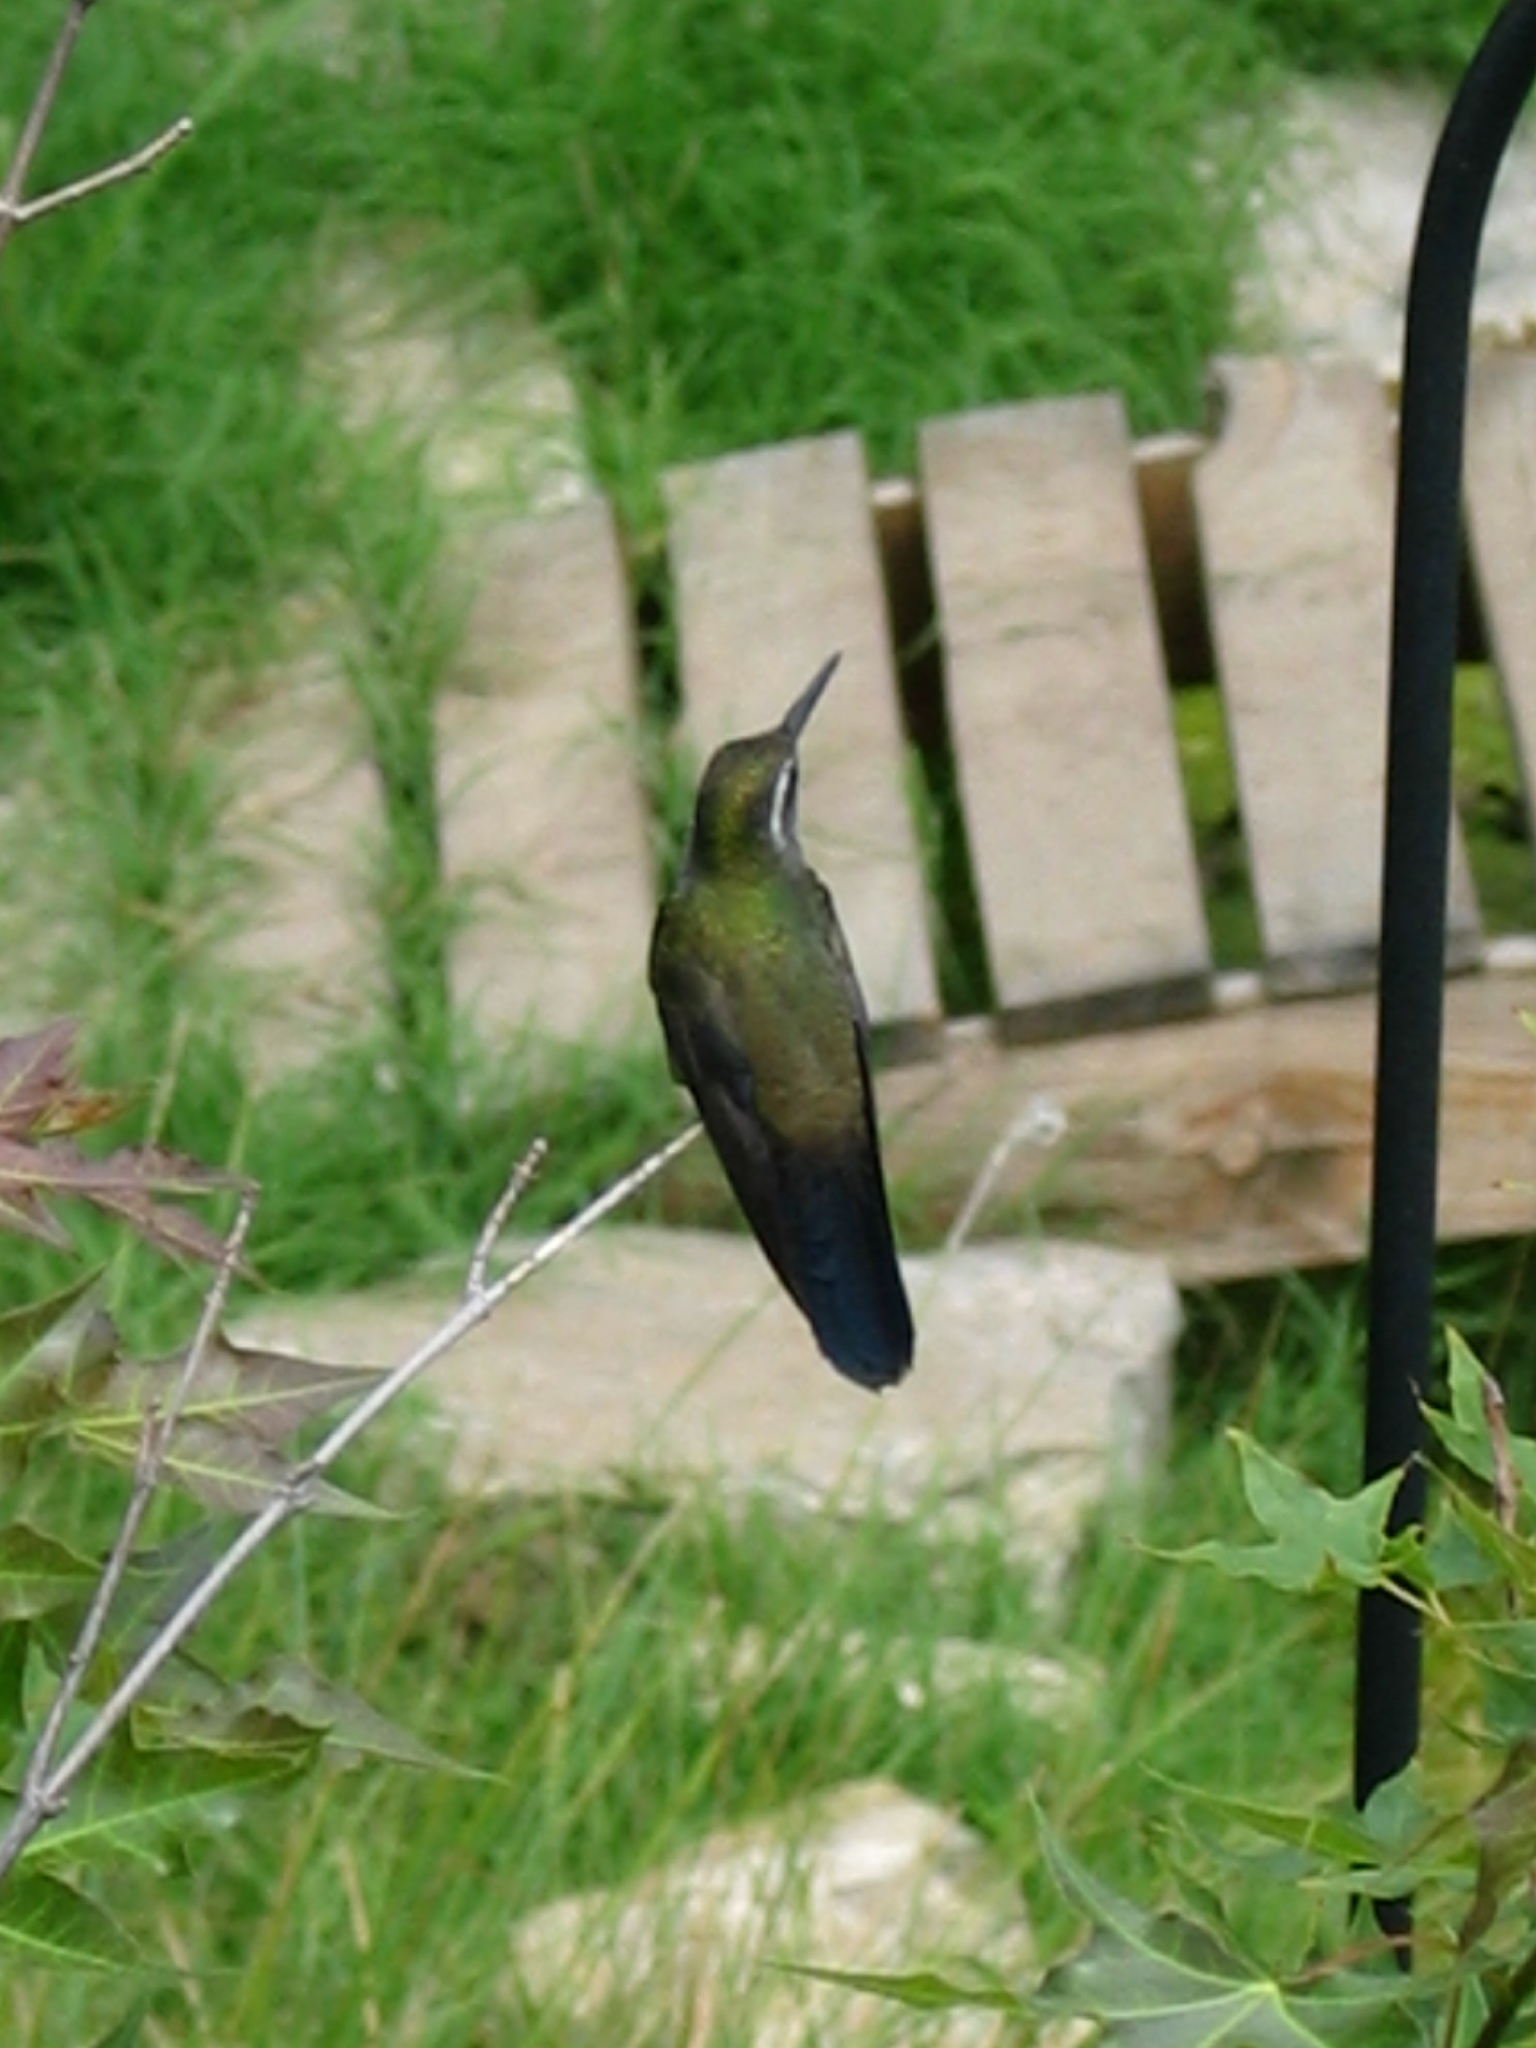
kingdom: Animalia
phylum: Chordata
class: Aves
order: Apodiformes
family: Trochilidae
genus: Lampornis
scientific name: Lampornis clemenciae
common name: Blue-throated mountaingem
